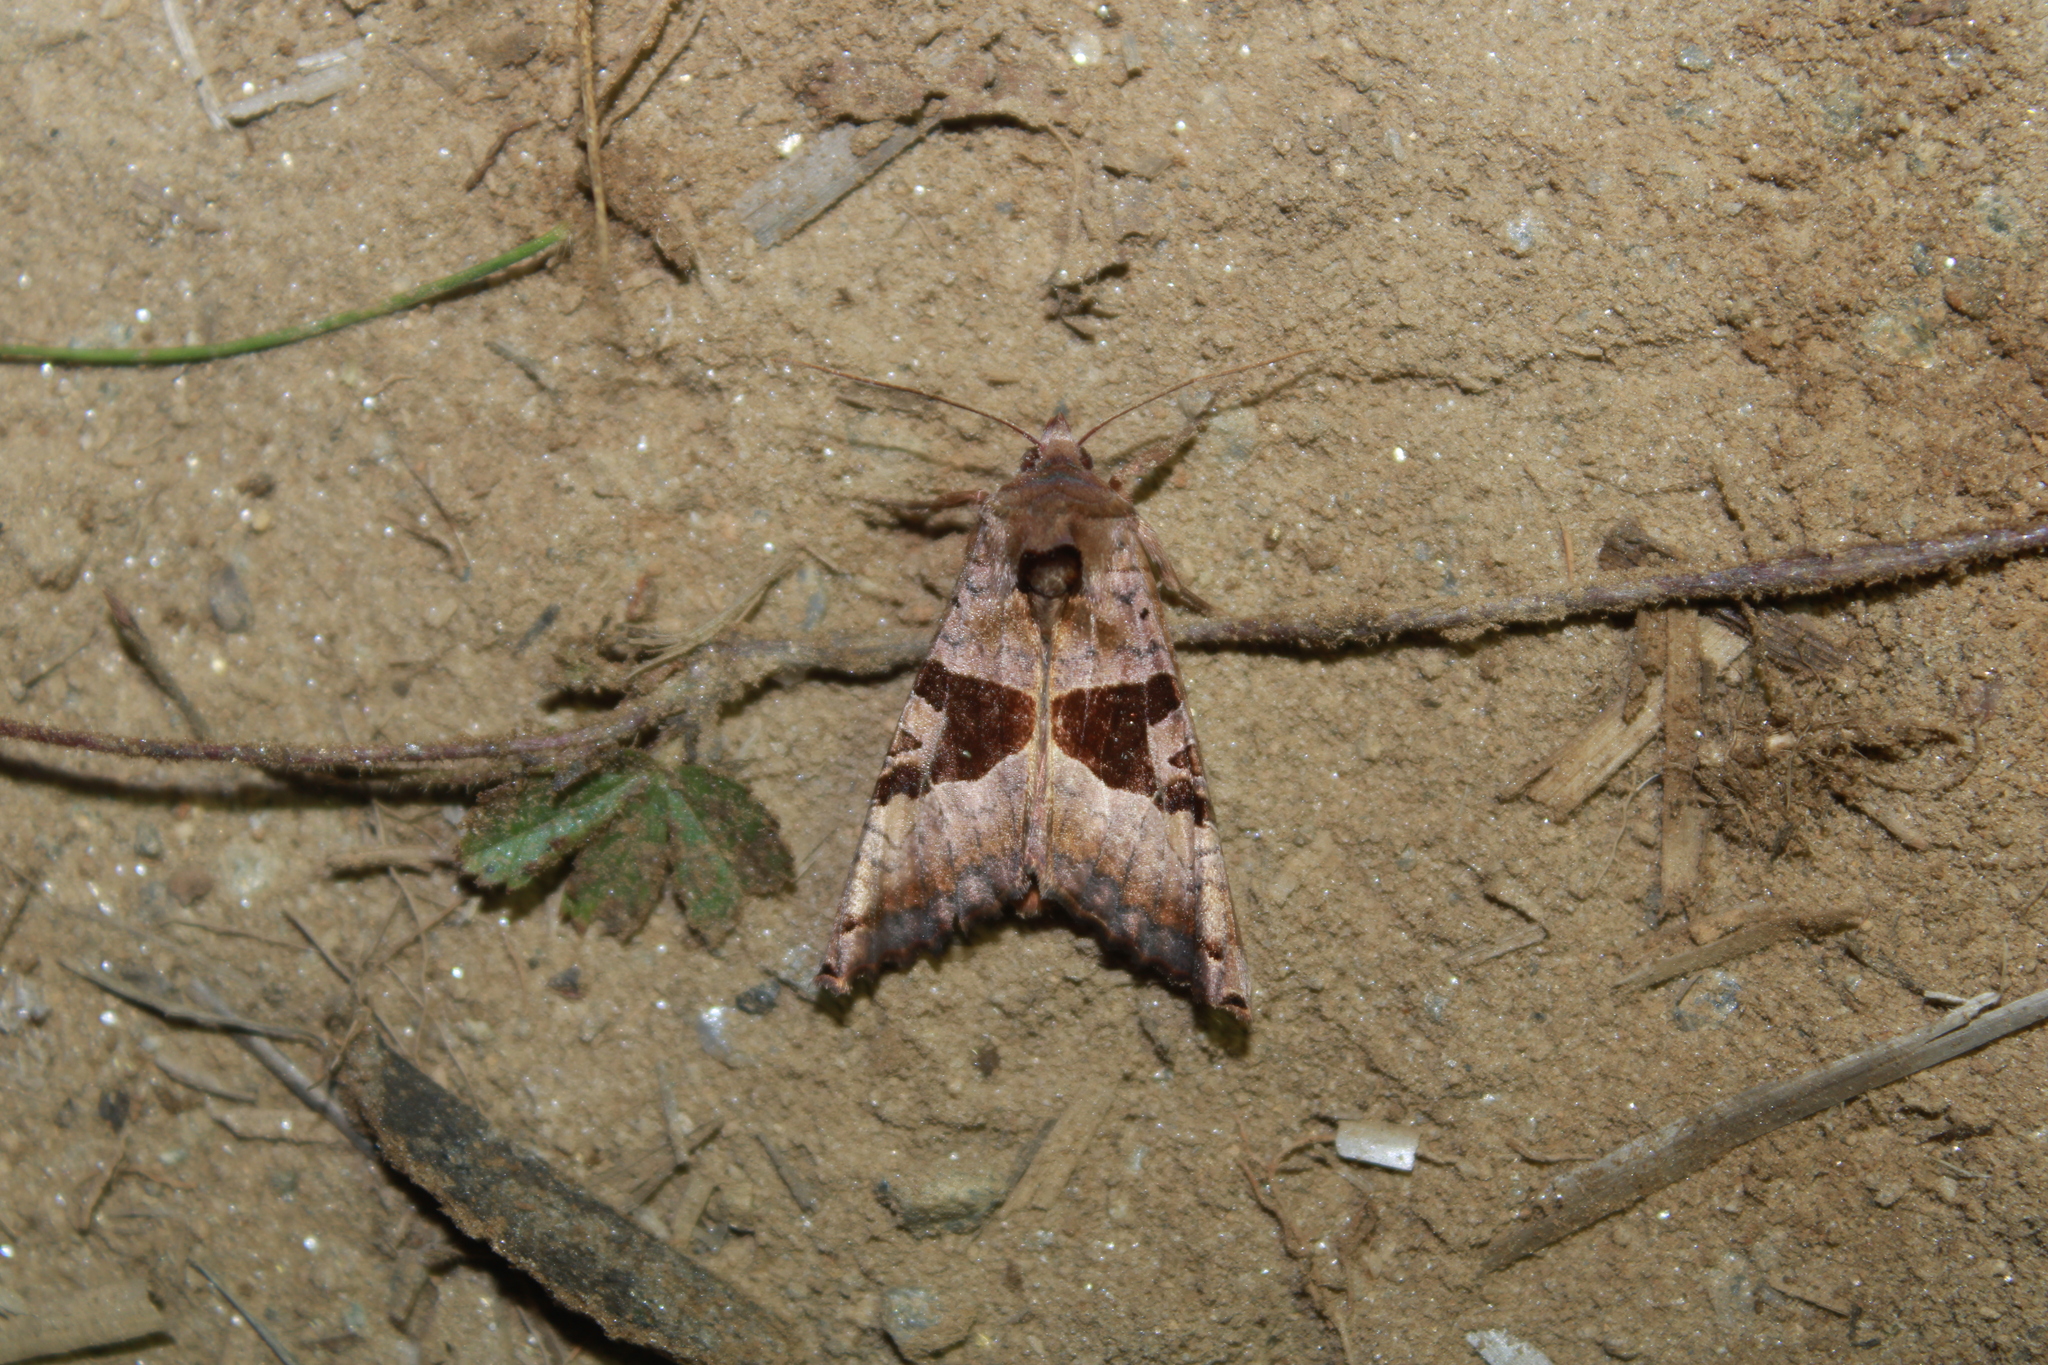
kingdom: Animalia
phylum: Arthropoda
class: Insecta
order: Lepidoptera
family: Noctuidae
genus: Phlogophora
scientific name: Phlogophora periculosa
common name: Brown angle shades
